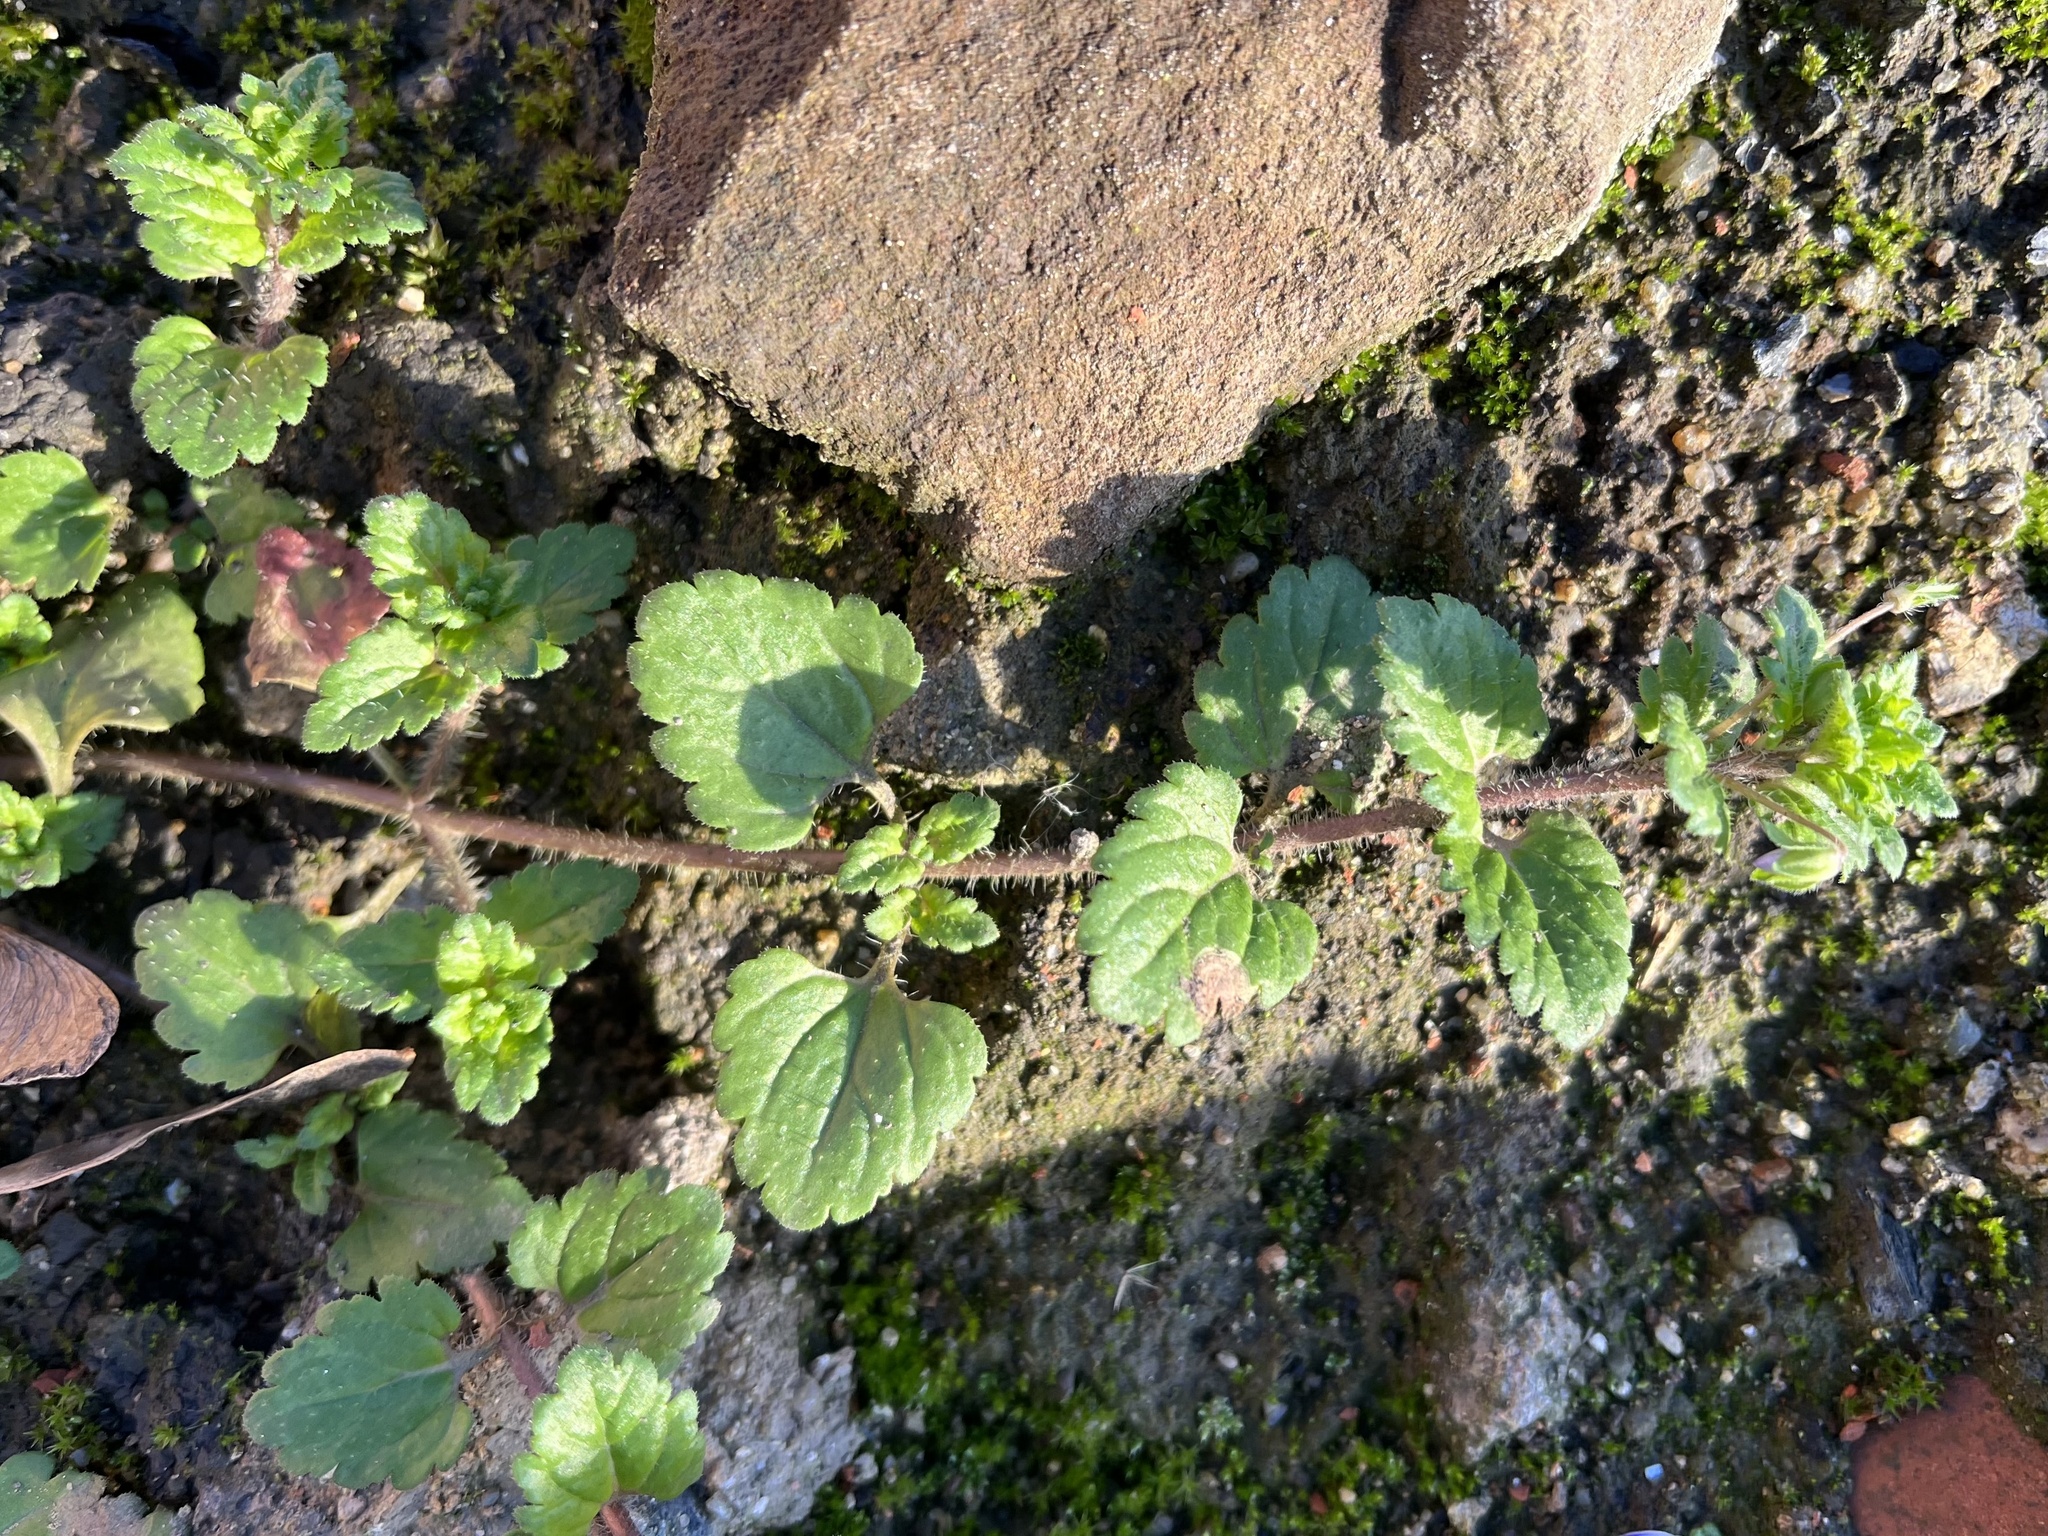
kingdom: Plantae
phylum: Tracheophyta
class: Magnoliopsida
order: Lamiales
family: Plantaginaceae
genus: Veronica
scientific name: Veronica persica
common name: Common field-speedwell
